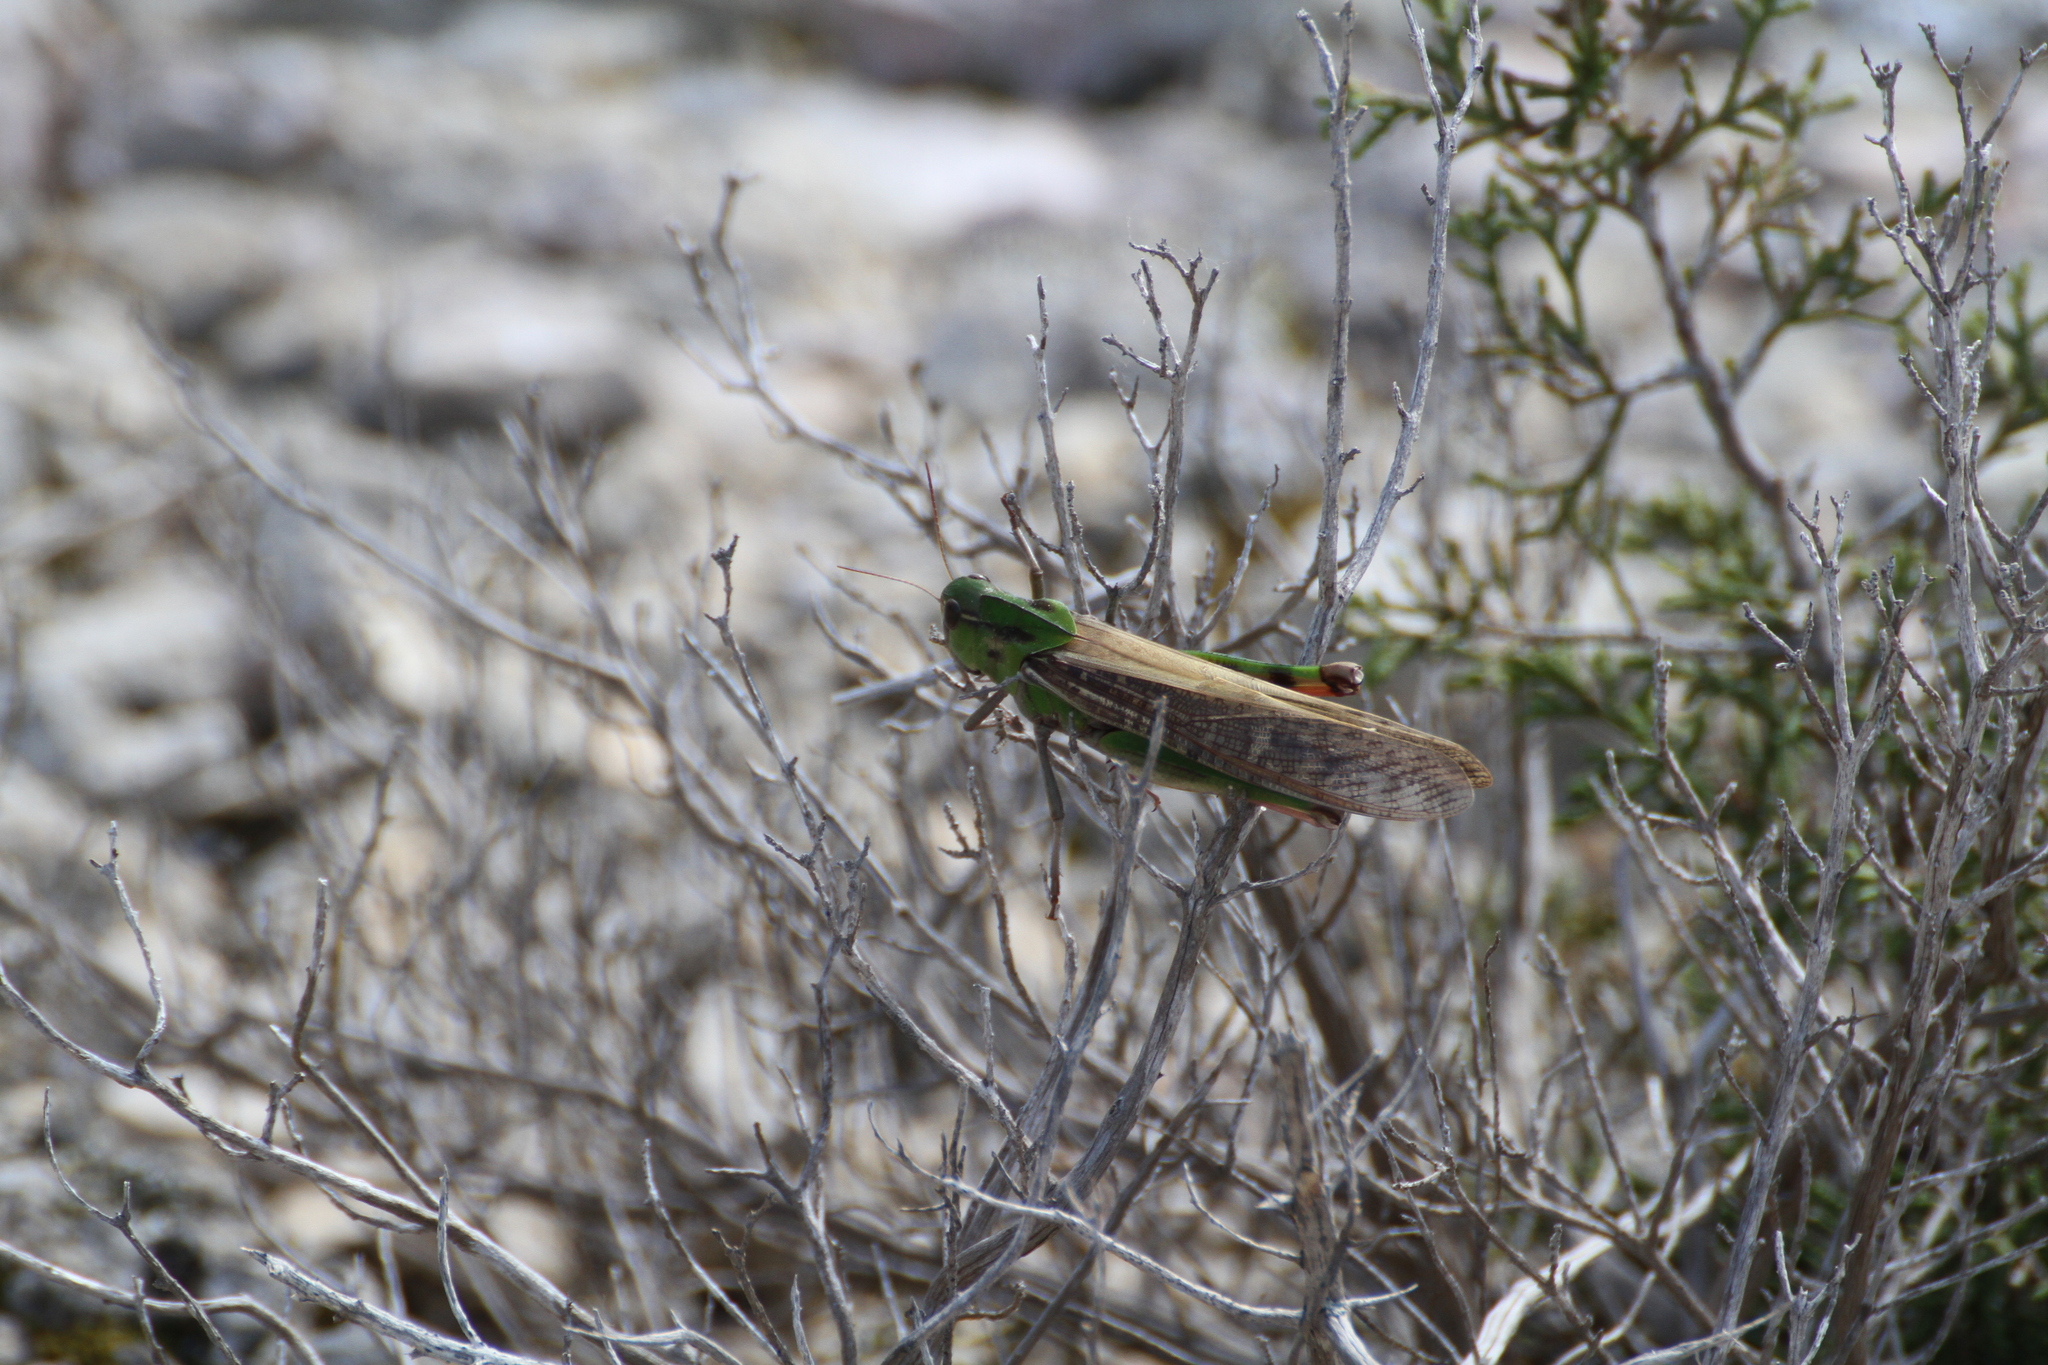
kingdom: Animalia
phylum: Arthropoda
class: Insecta
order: Orthoptera
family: Acrididae
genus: Locusta
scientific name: Locusta migratoria
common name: Migratory locust
